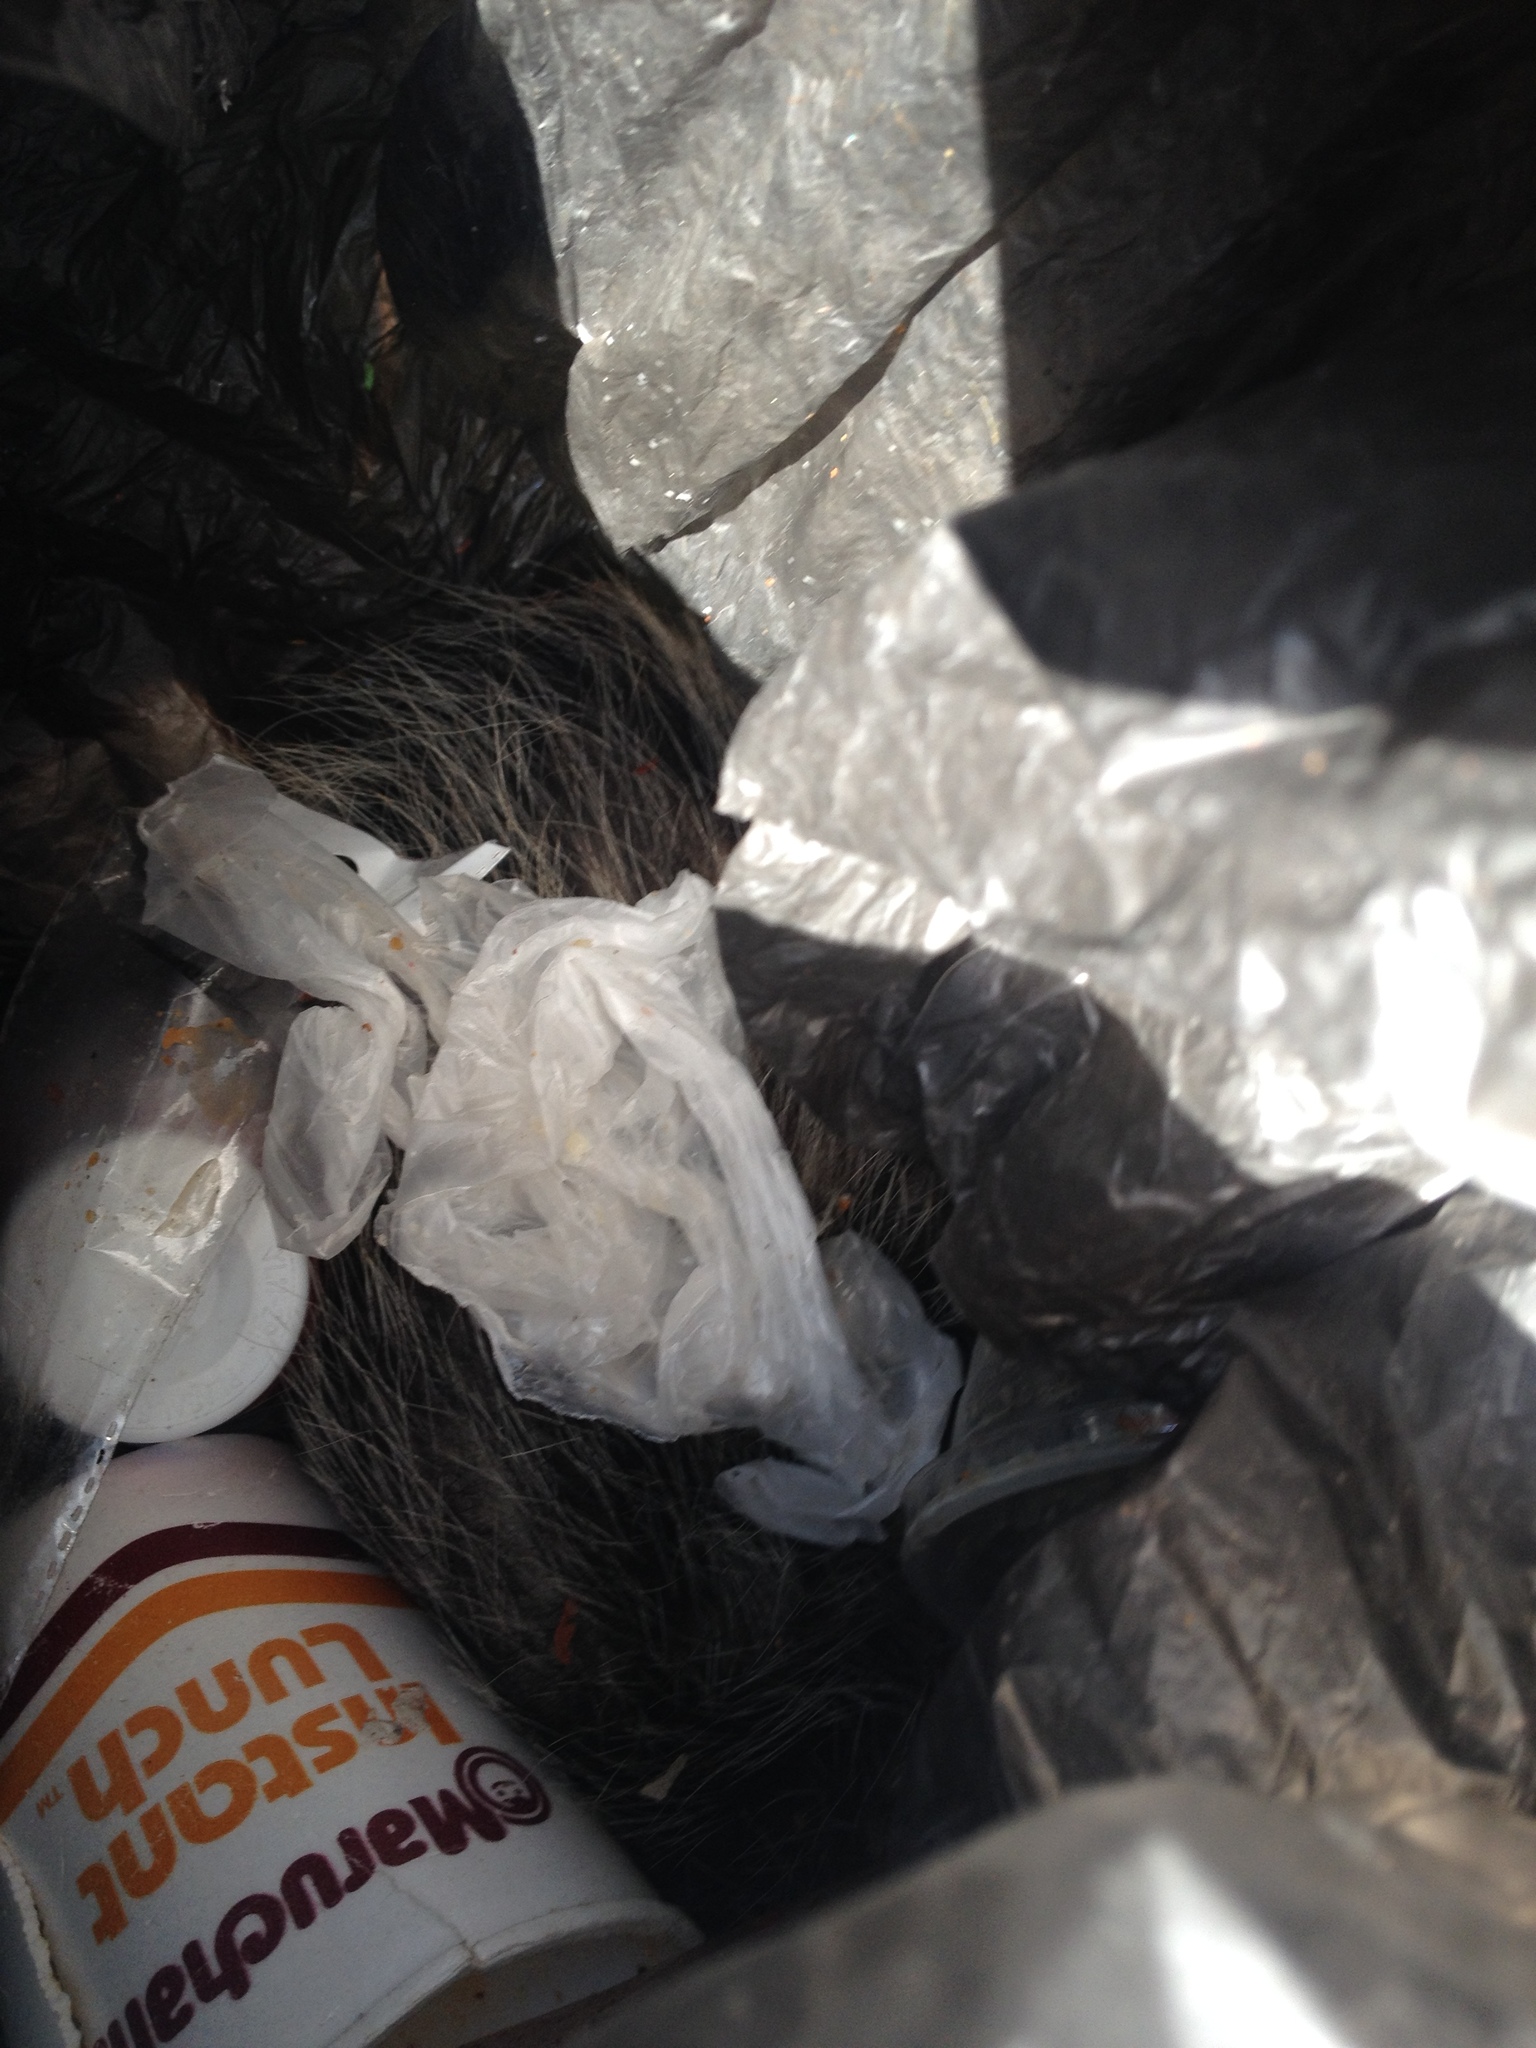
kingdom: Animalia
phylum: Chordata
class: Mammalia
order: Didelphimorphia
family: Didelphidae
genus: Didelphis
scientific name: Didelphis virginiana
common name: Virginia opossum
